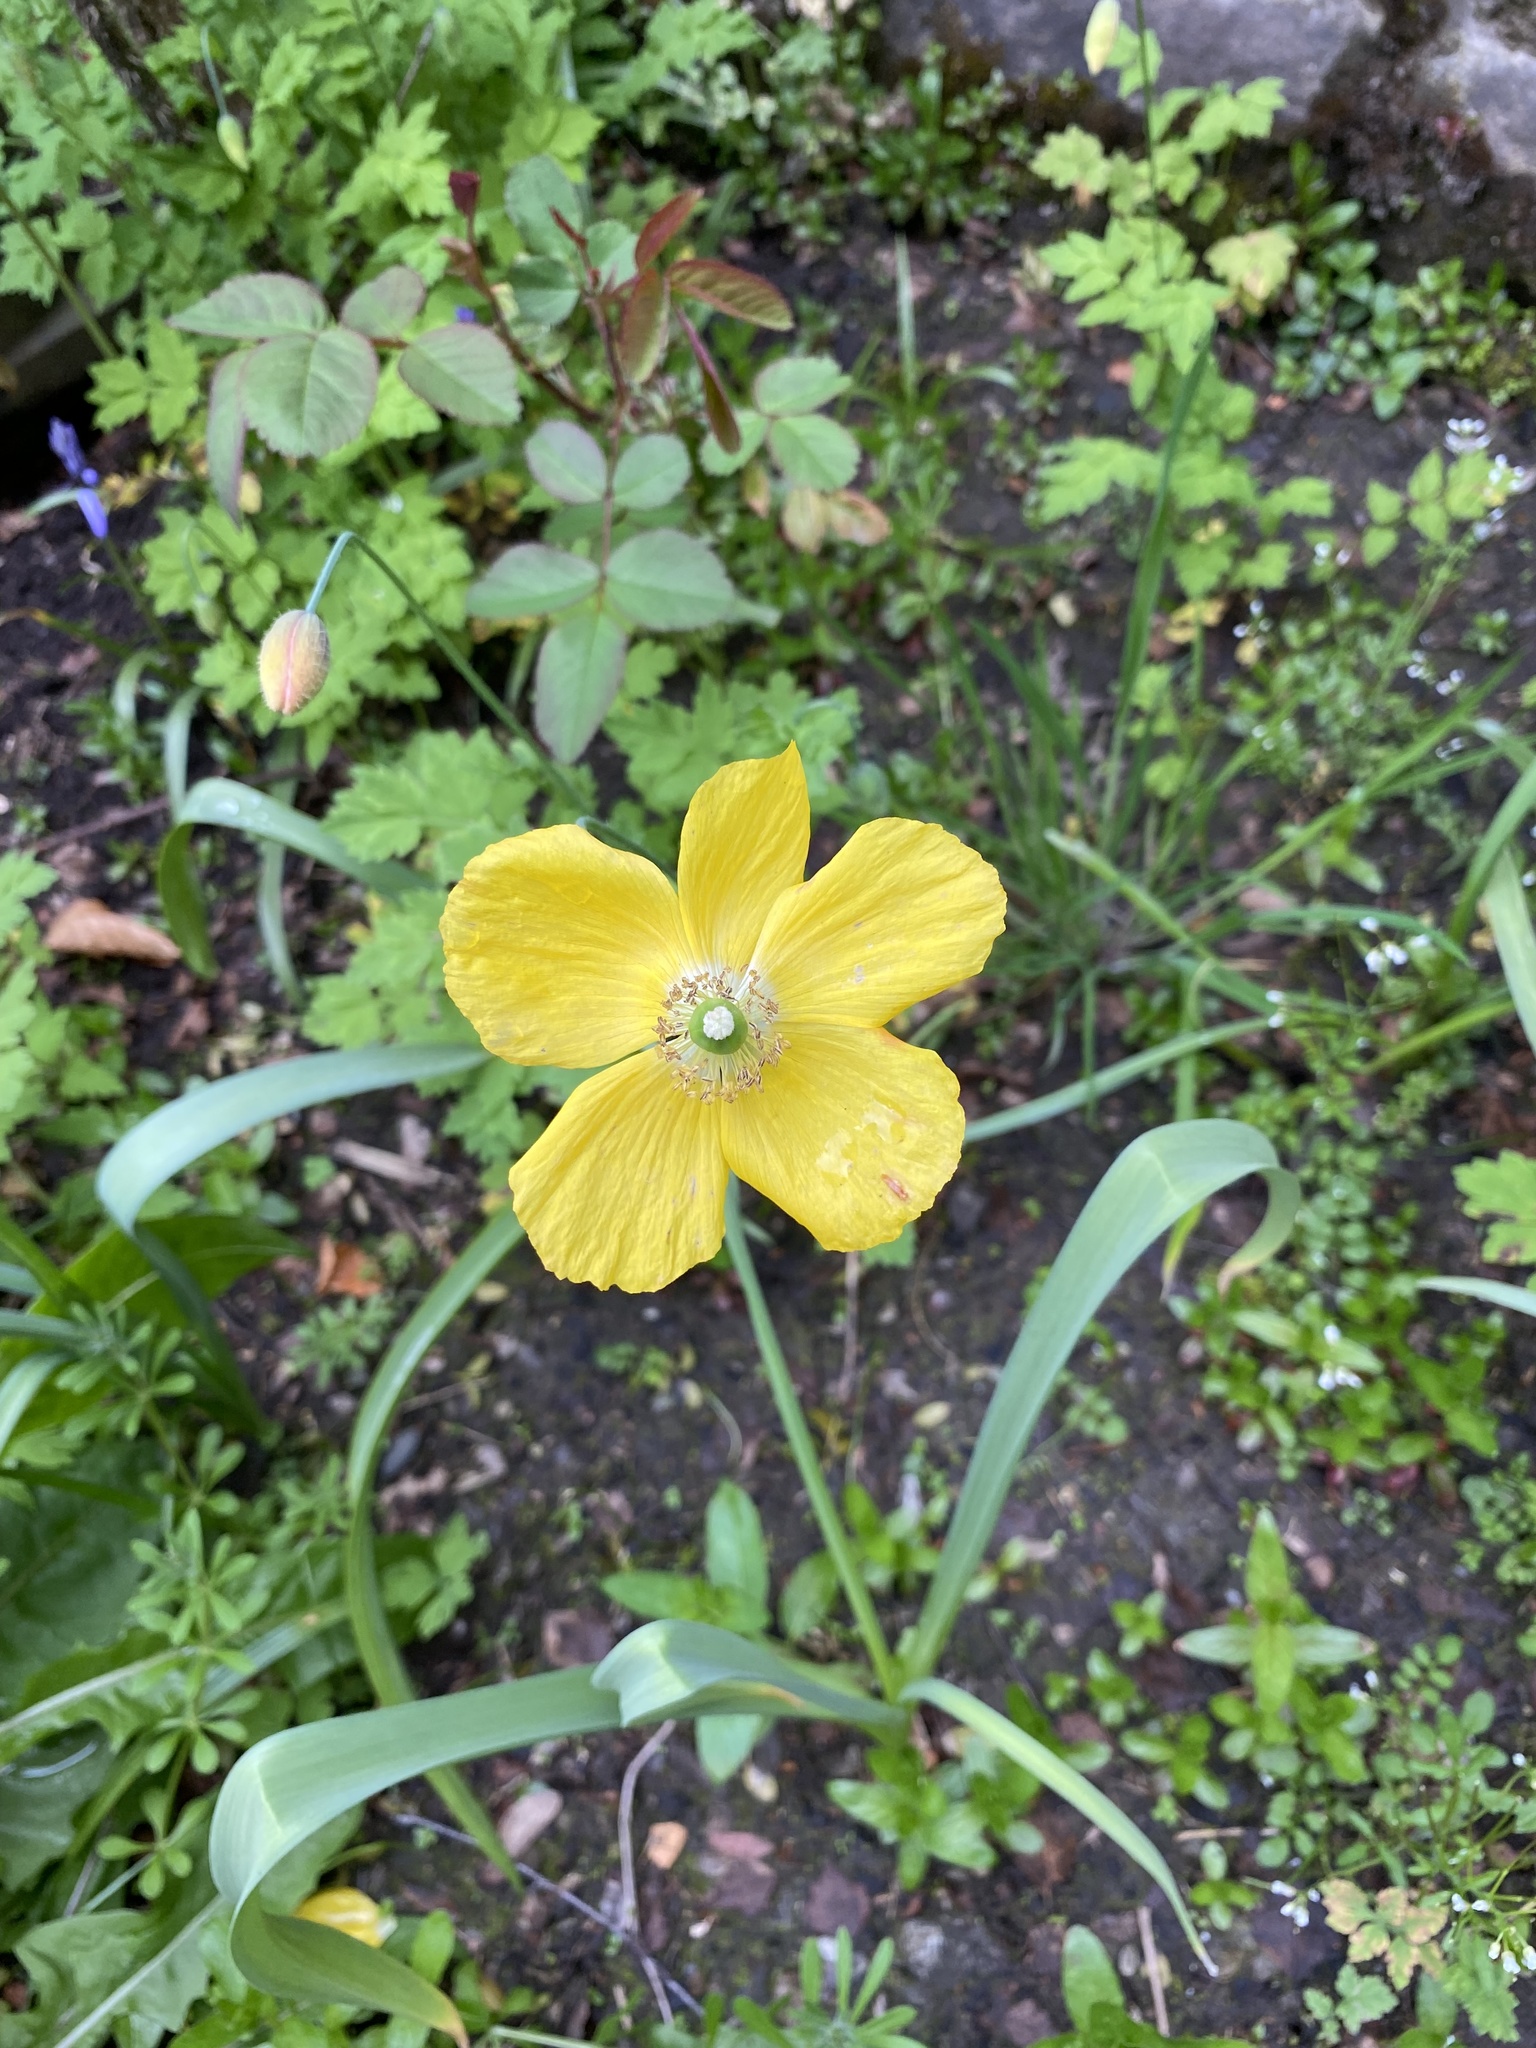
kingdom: Plantae
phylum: Tracheophyta
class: Magnoliopsida
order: Ranunculales
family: Papaveraceae
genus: Papaver
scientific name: Papaver cambricum
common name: Poppy
